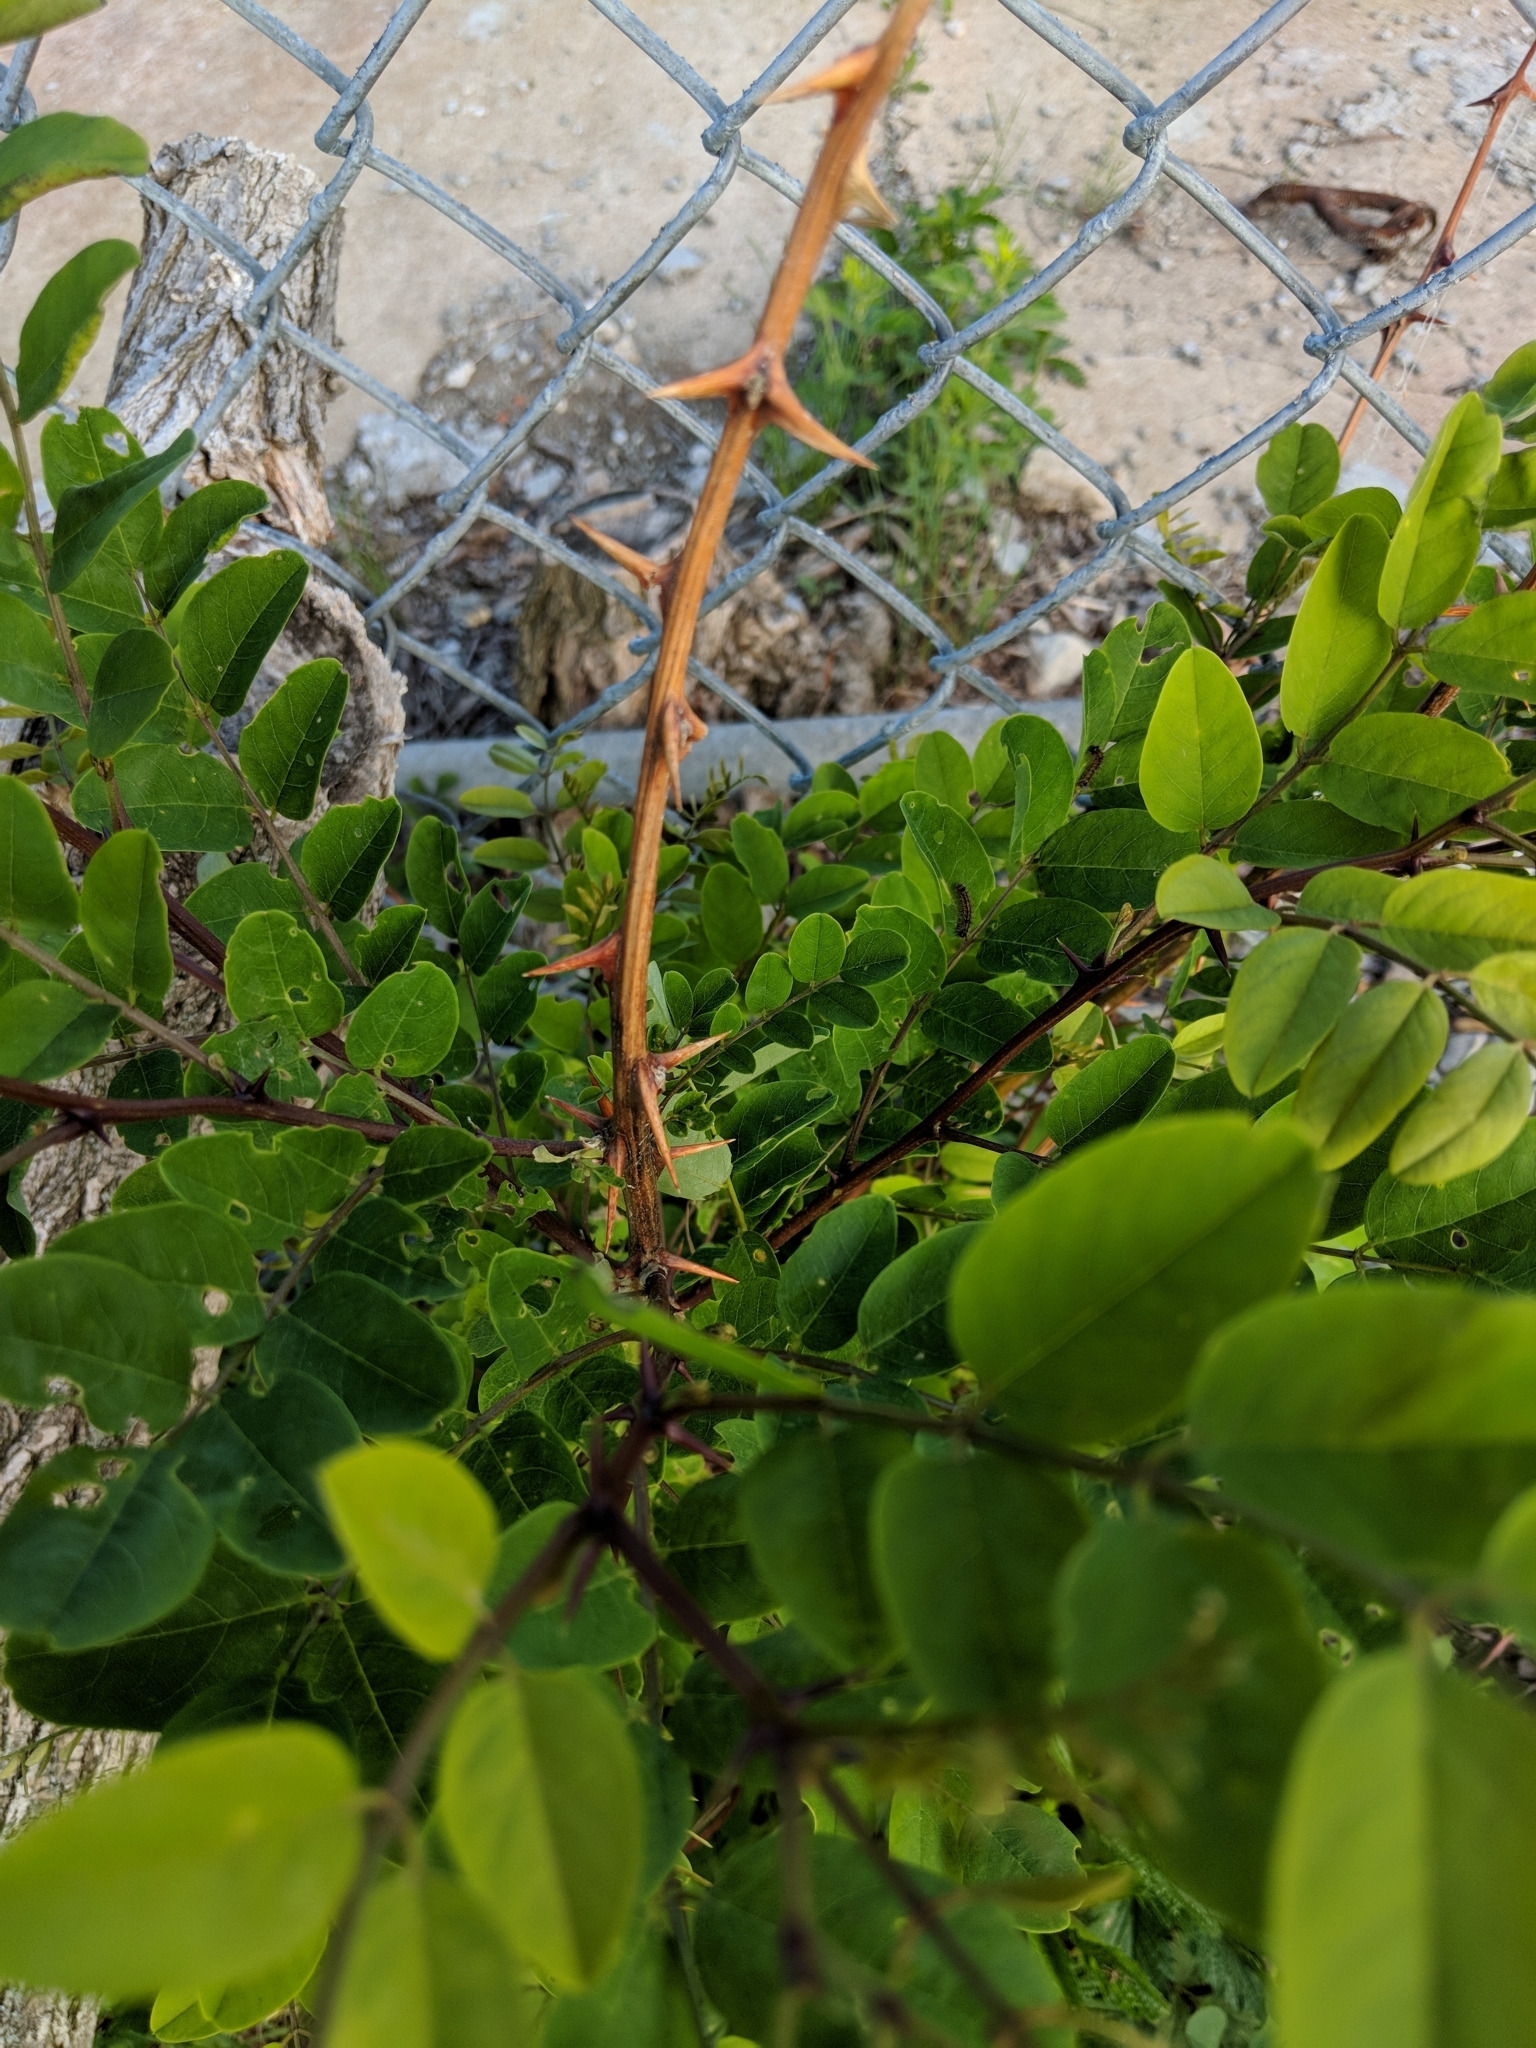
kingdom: Plantae
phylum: Tracheophyta
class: Magnoliopsida
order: Fabales
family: Fabaceae
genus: Robinia
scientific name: Robinia pseudoacacia
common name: Black locust
